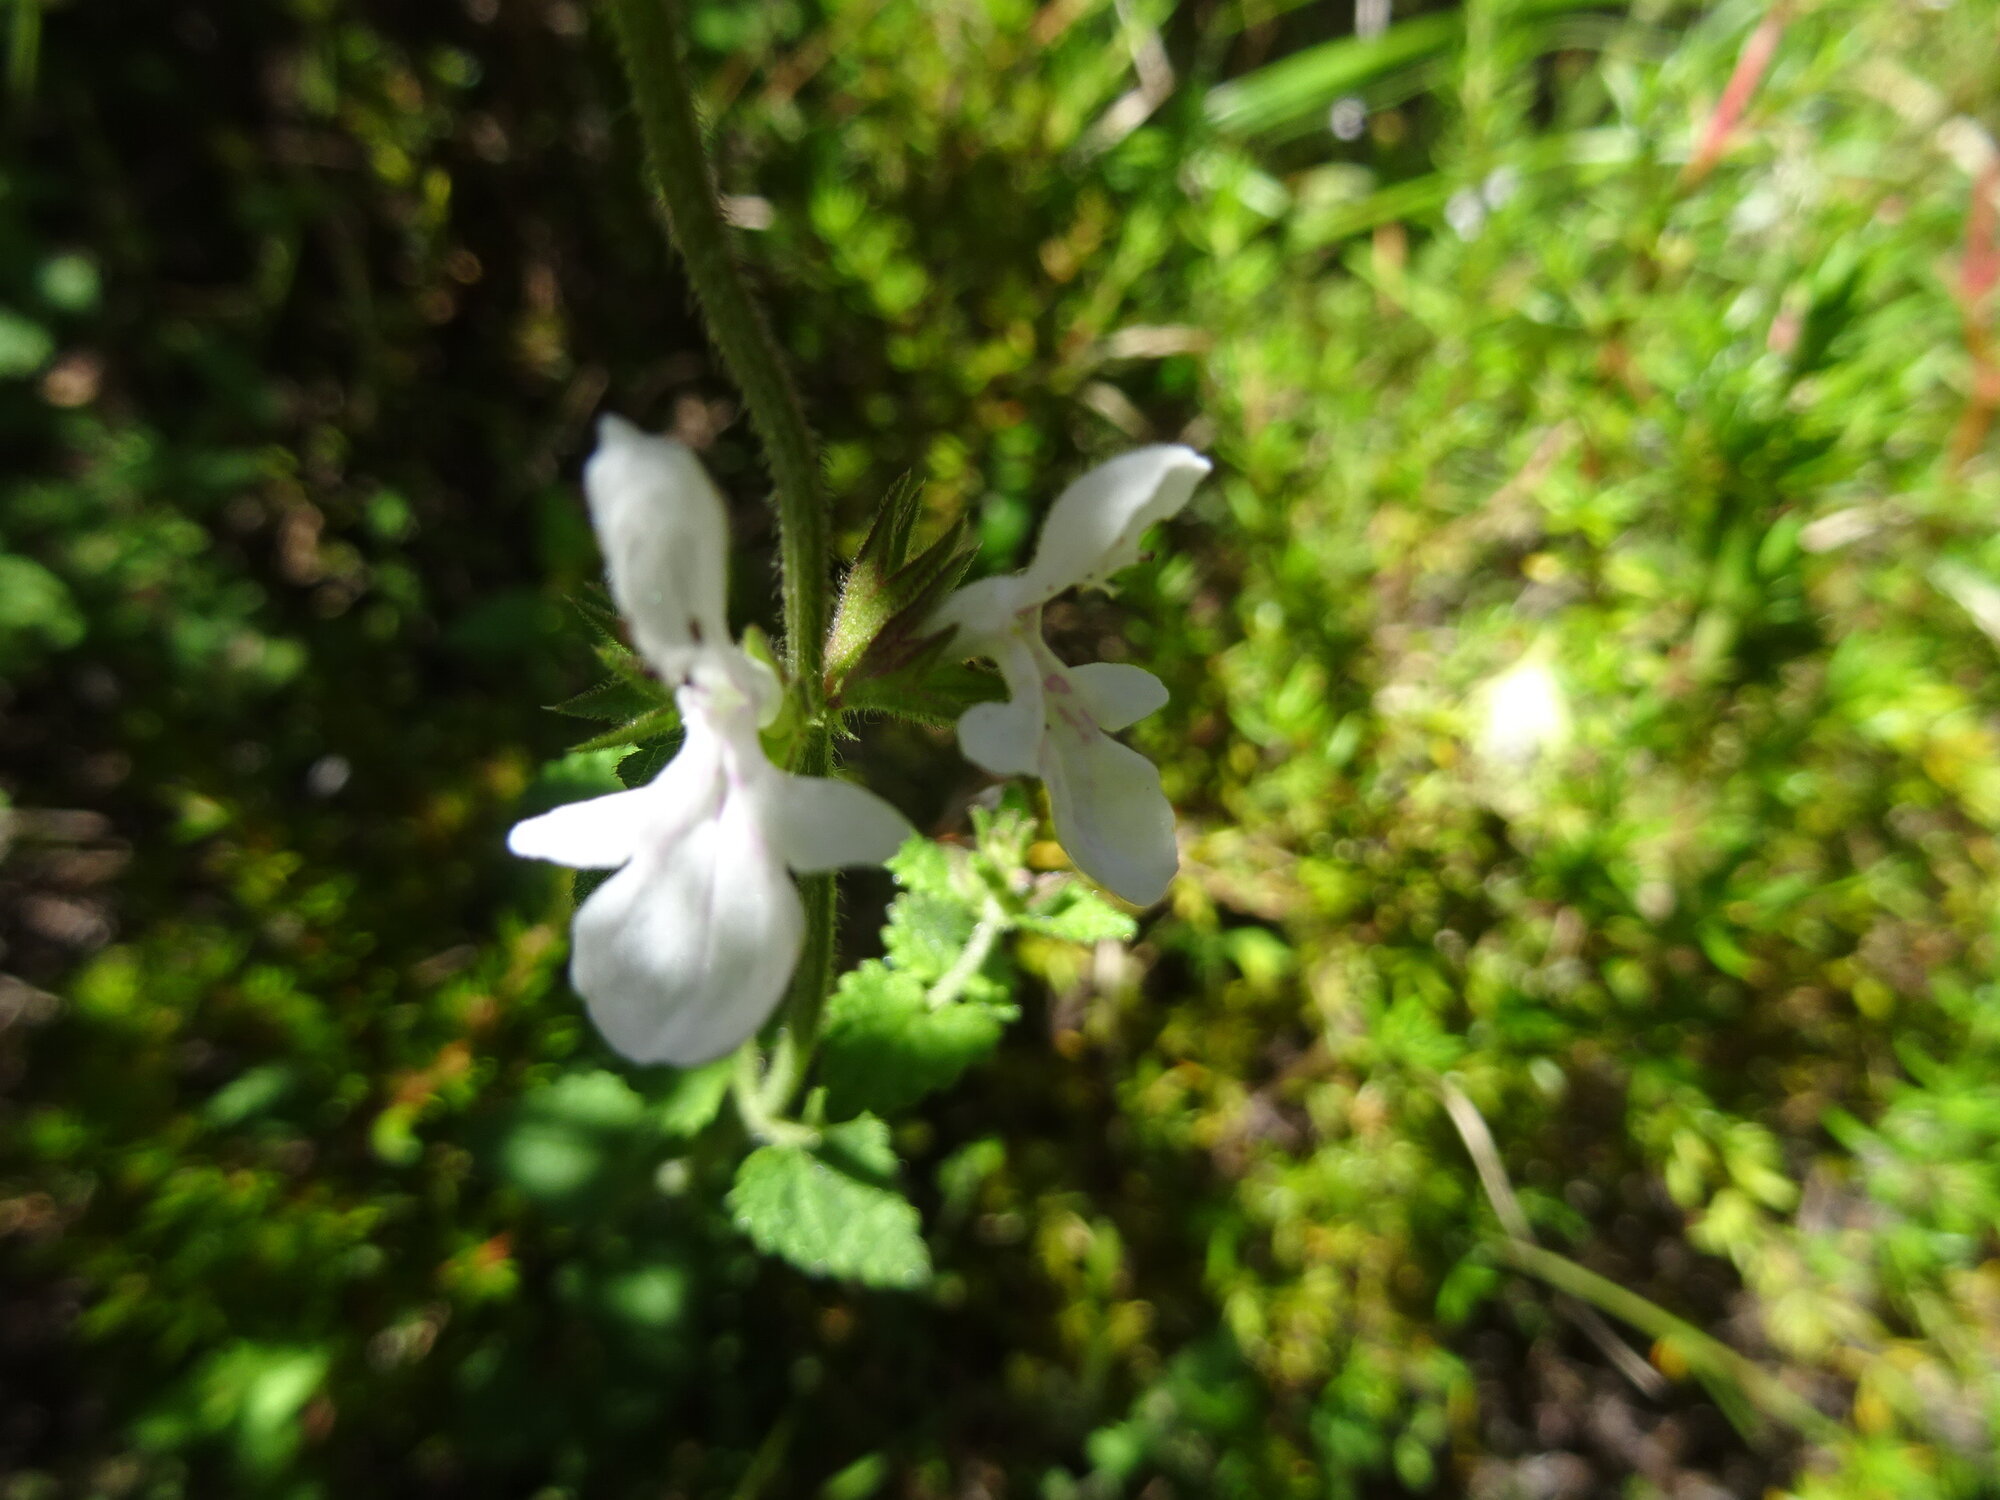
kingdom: Plantae
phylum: Tracheophyta
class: Magnoliopsida
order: Lamiales
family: Lamiaceae
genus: Stachys
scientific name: Stachys aethiopica
